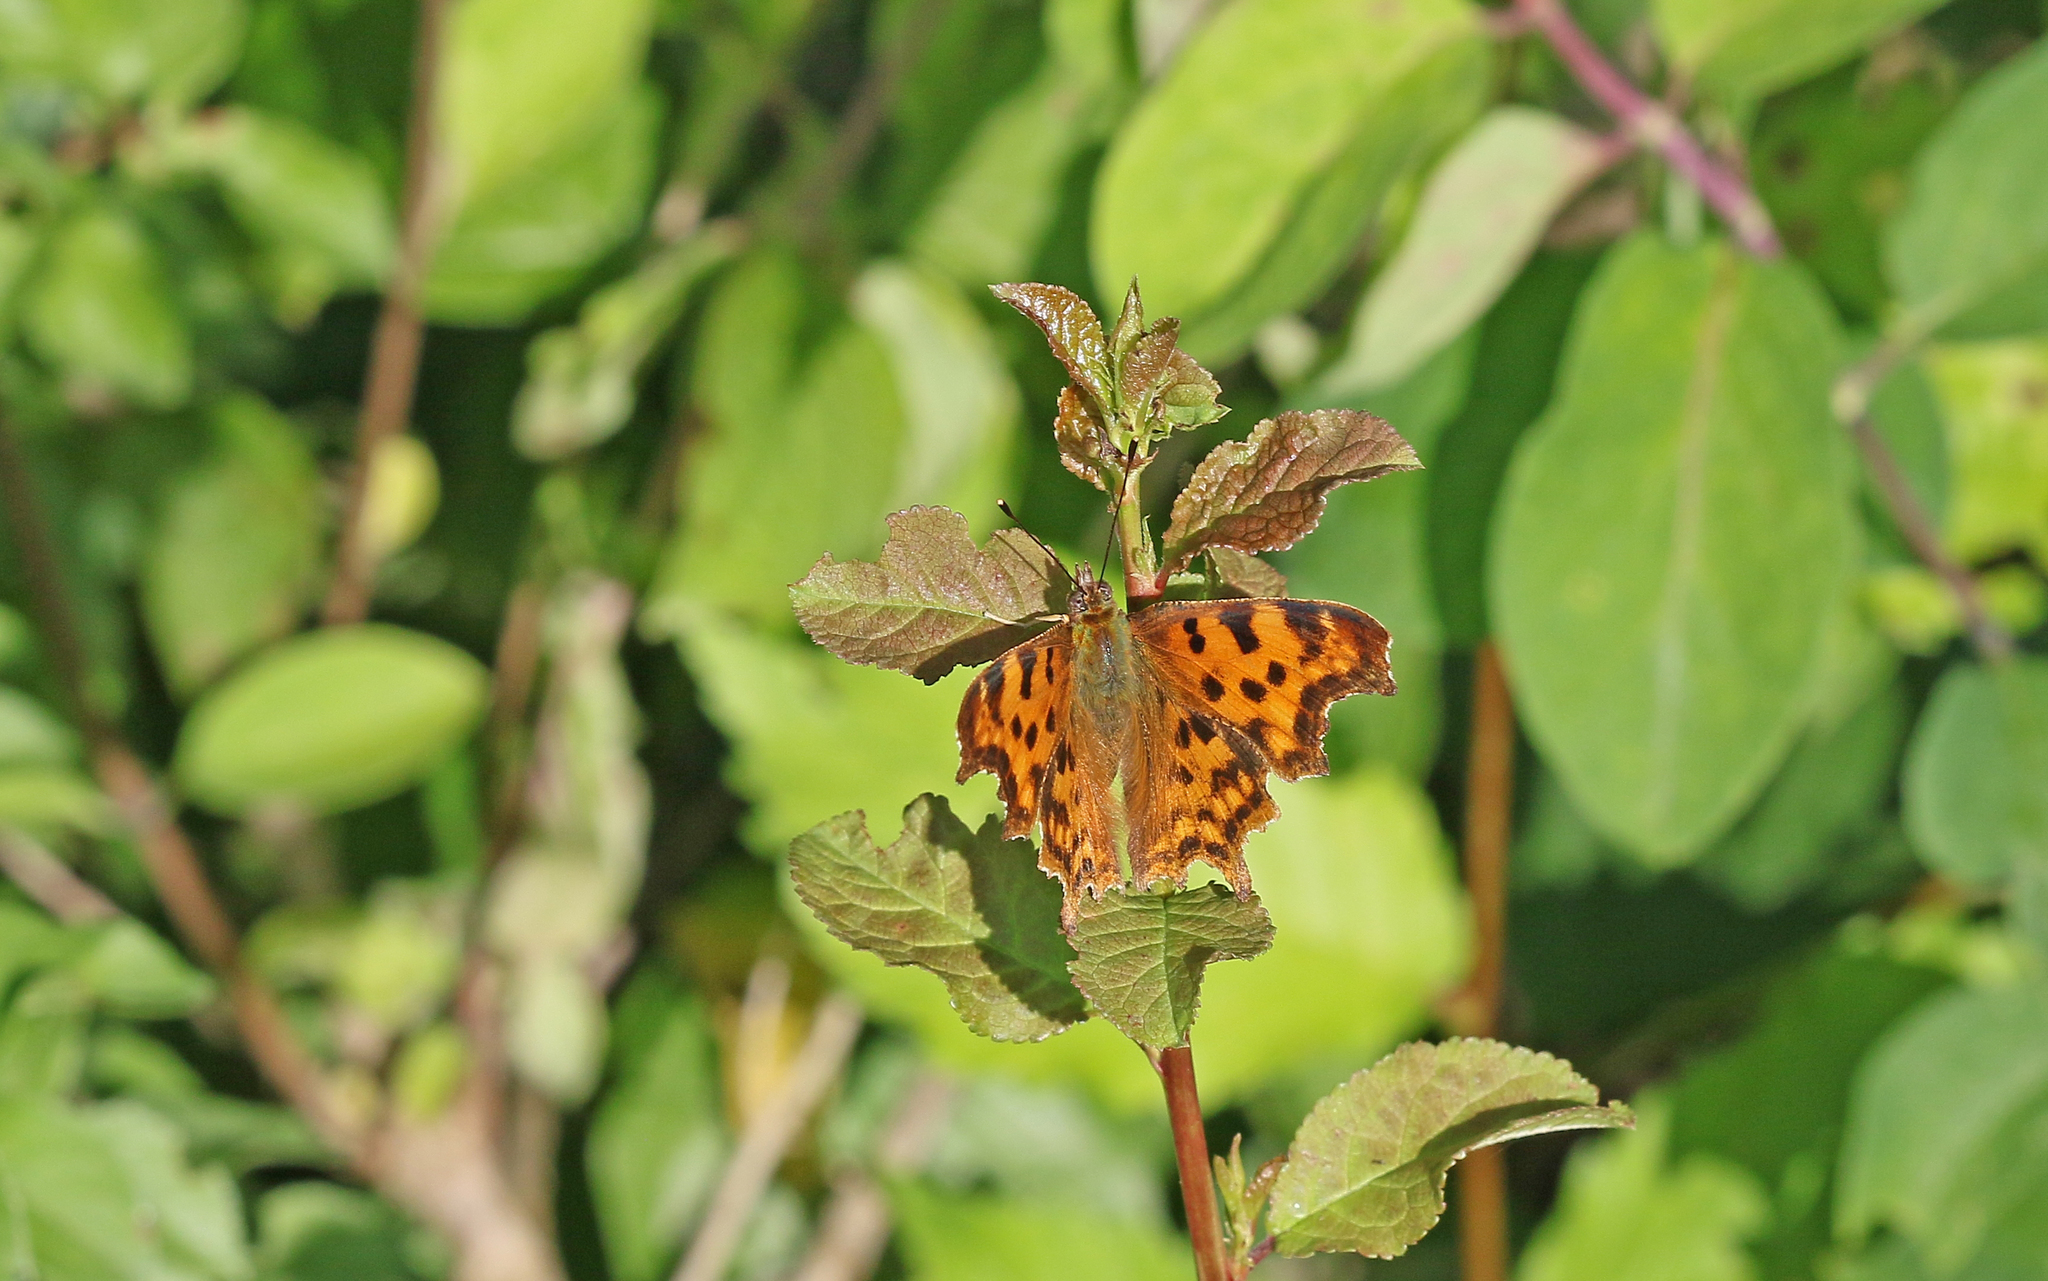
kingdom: Animalia
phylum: Arthropoda
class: Insecta
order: Lepidoptera
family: Nymphalidae
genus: Polygonia
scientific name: Polygonia c-album
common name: Comma
